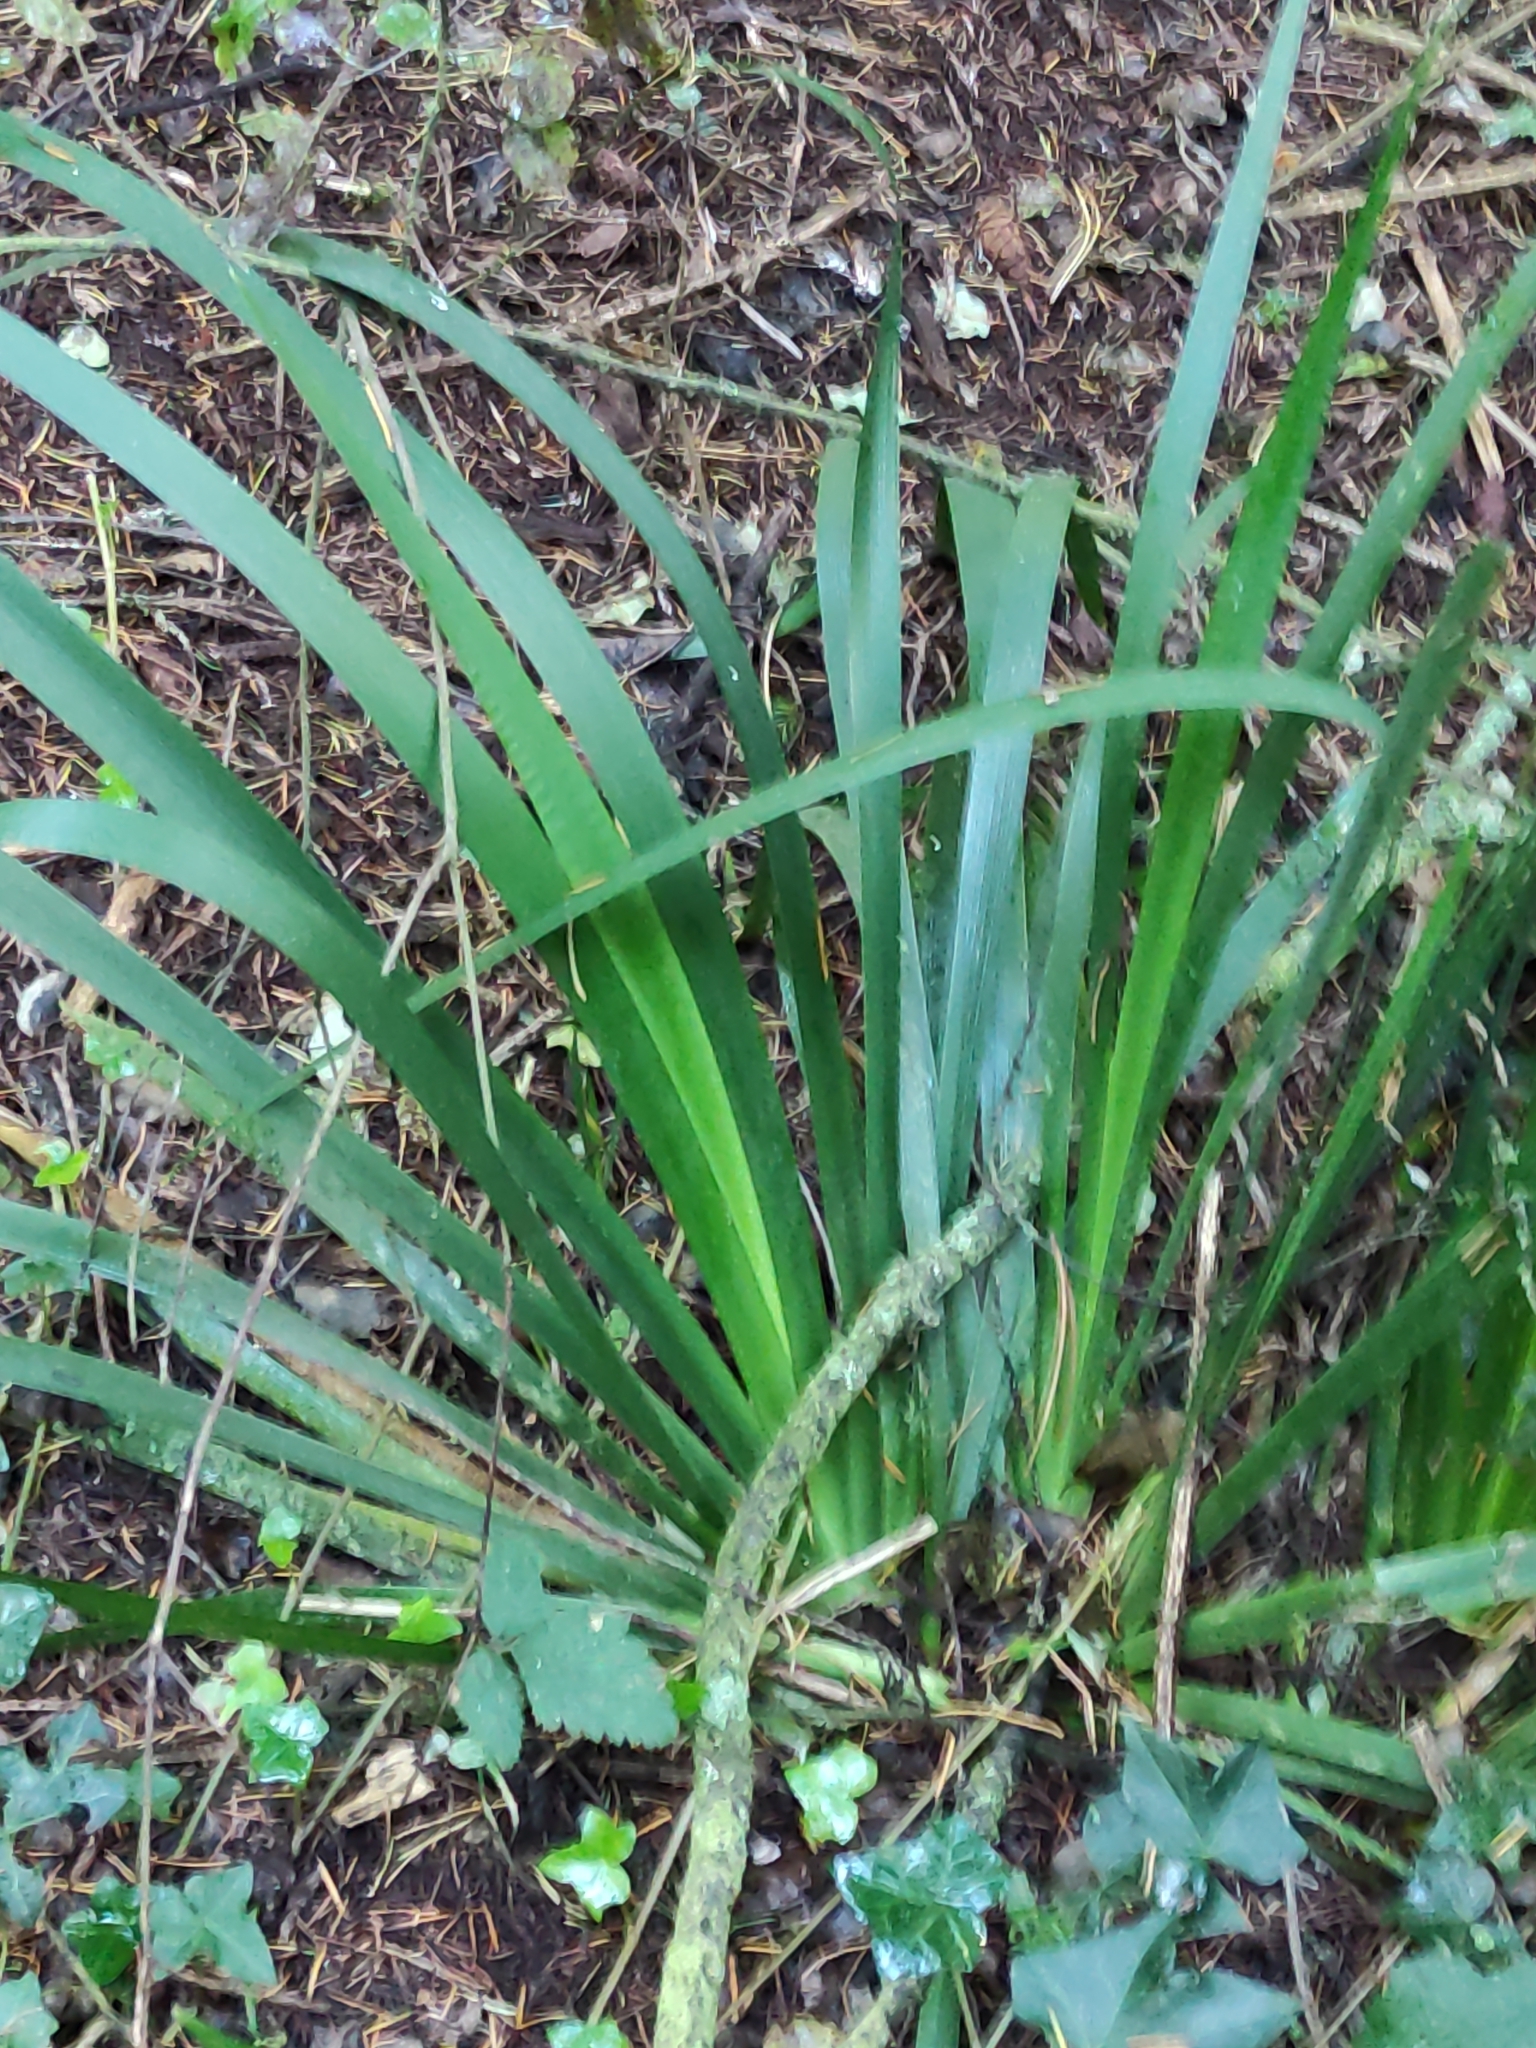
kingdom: Plantae
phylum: Tracheophyta
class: Liliopsida
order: Asparagales
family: Iridaceae
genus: Iris
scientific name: Iris foetidissima
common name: Stinking iris
